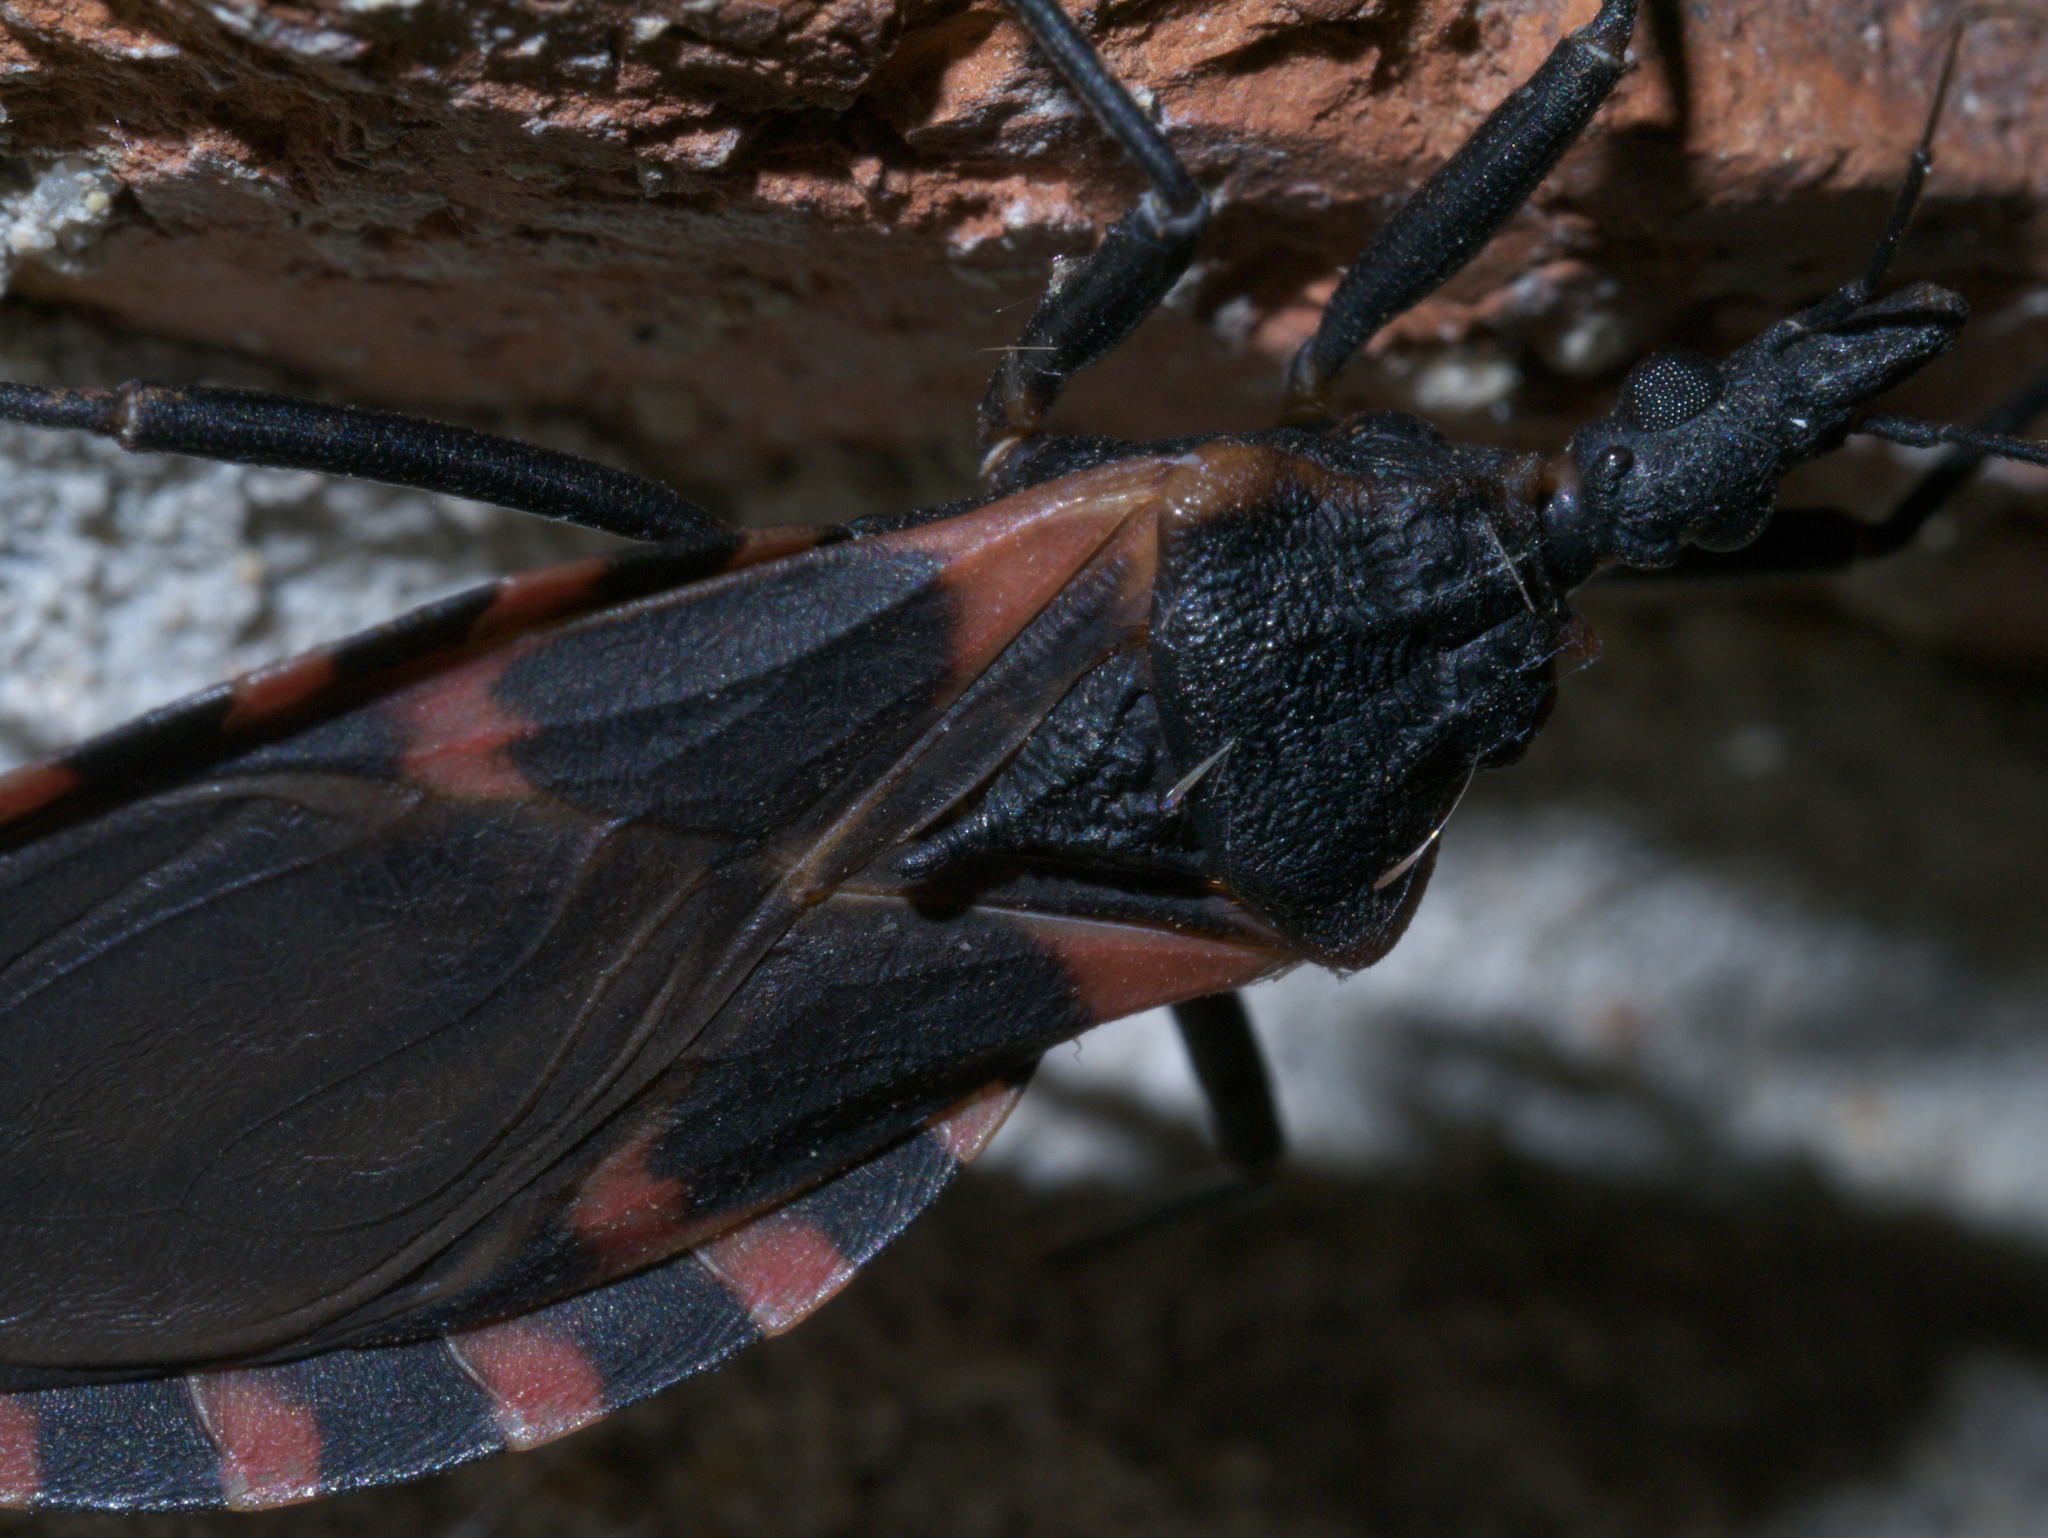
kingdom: Animalia
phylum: Arthropoda
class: Insecta
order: Hemiptera
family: Reduviidae
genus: Triatoma
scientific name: Triatoma sanguisuga
